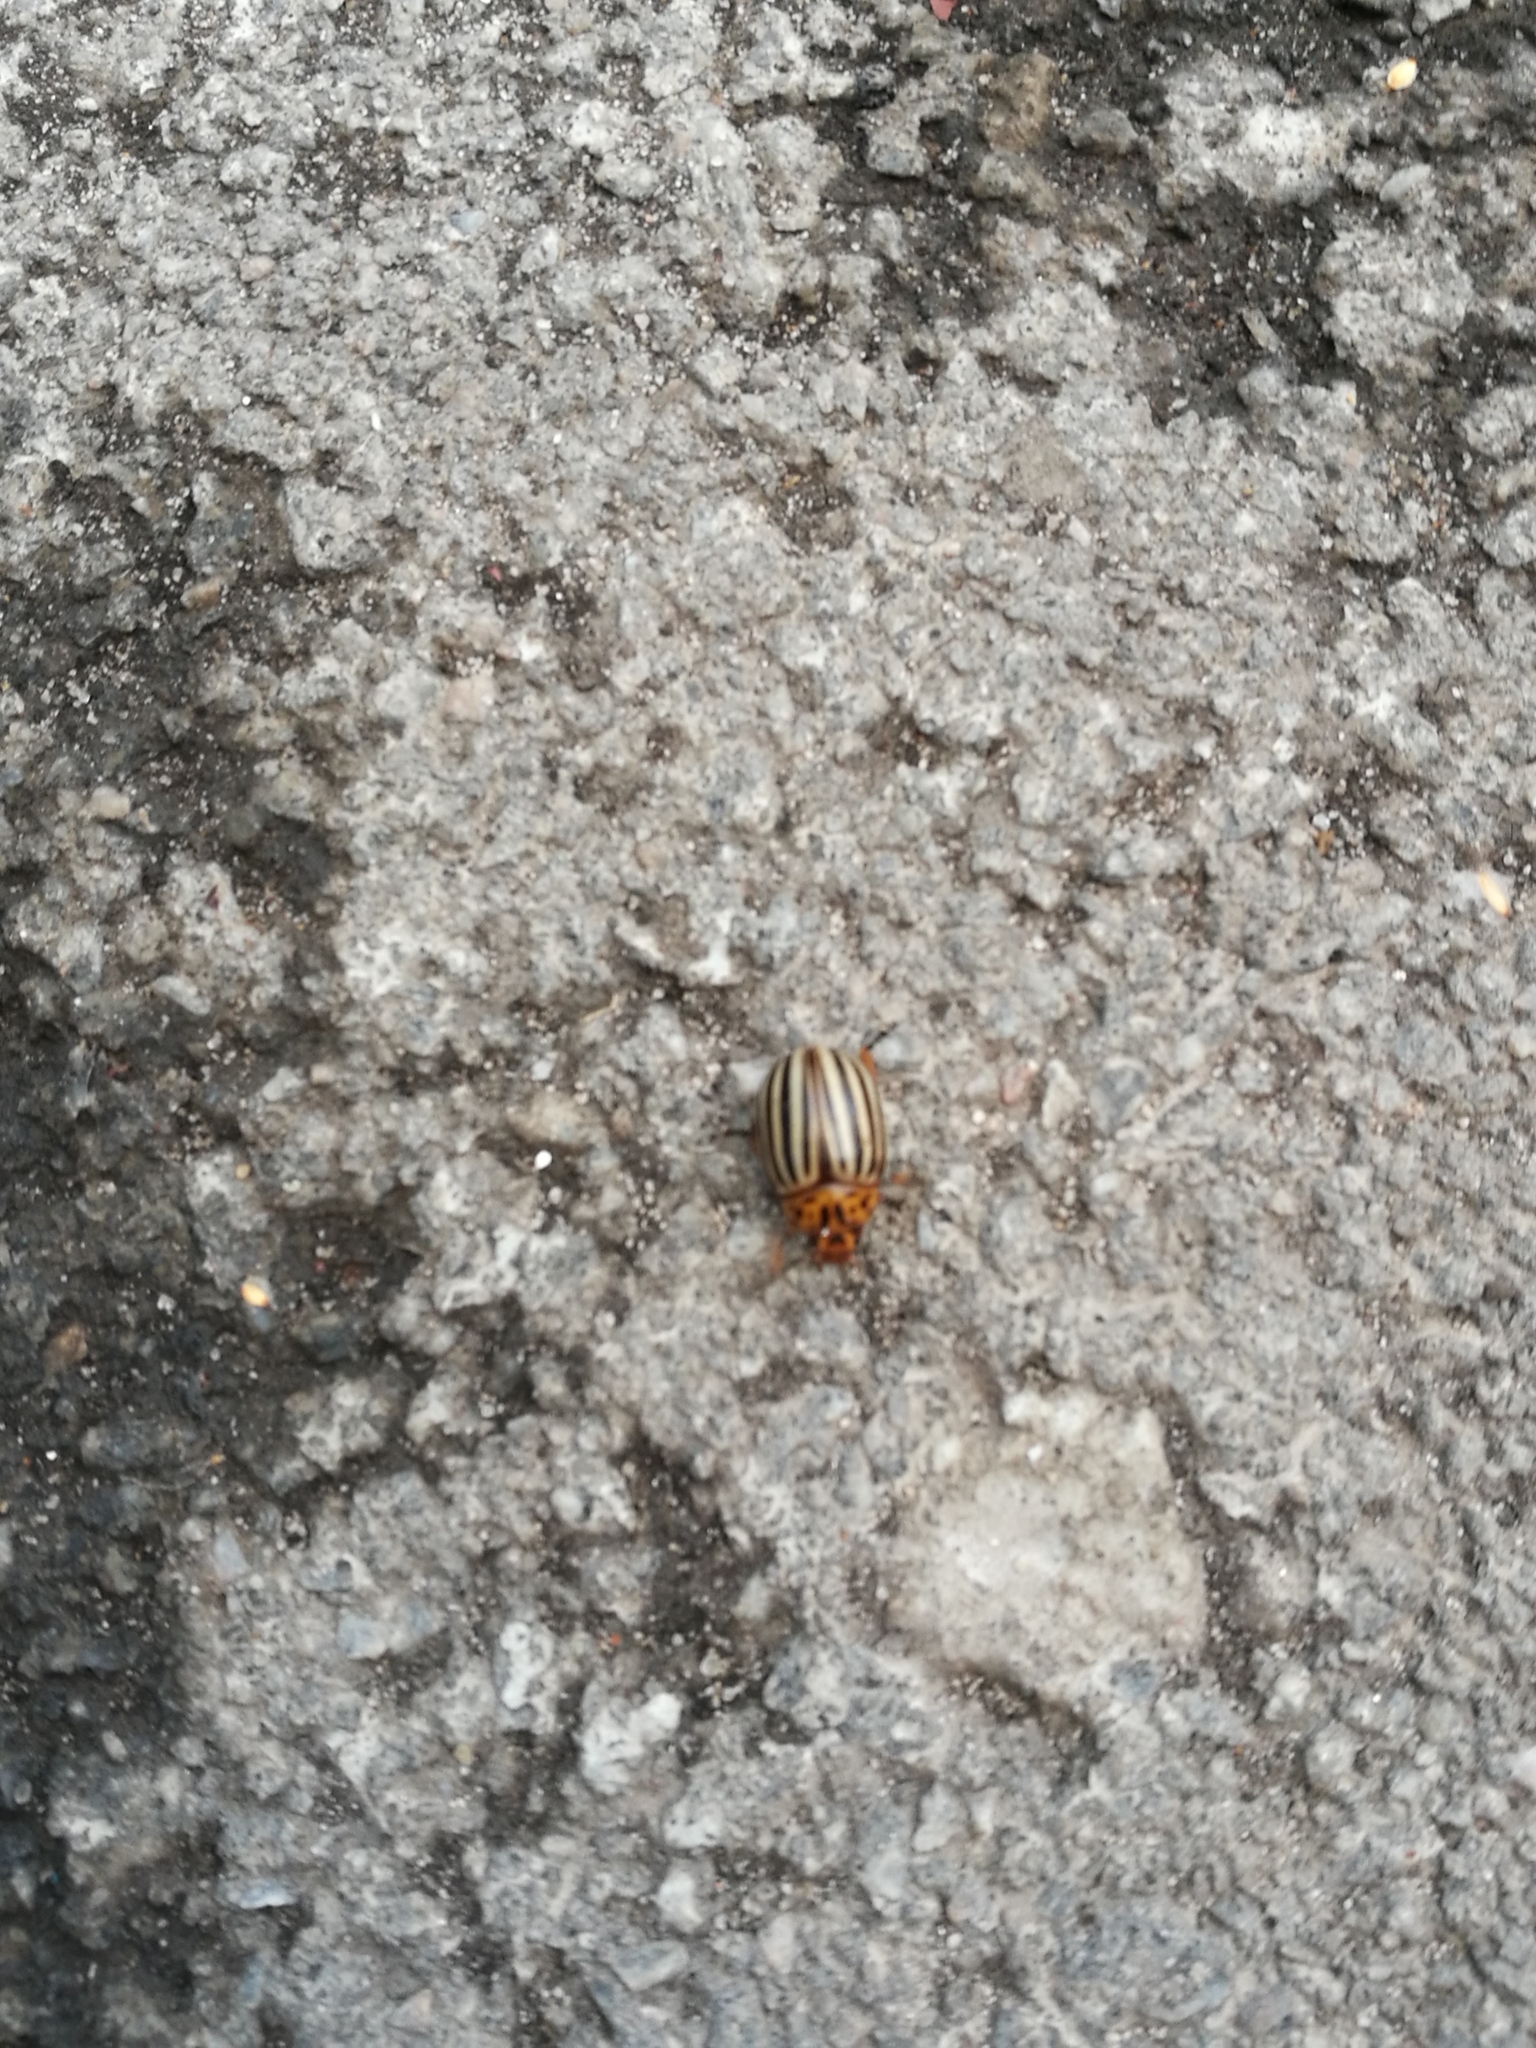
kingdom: Animalia
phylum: Arthropoda
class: Insecta
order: Coleoptera
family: Chrysomelidae
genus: Leptinotarsa
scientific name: Leptinotarsa decemlineata
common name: Colorado potato beetle
